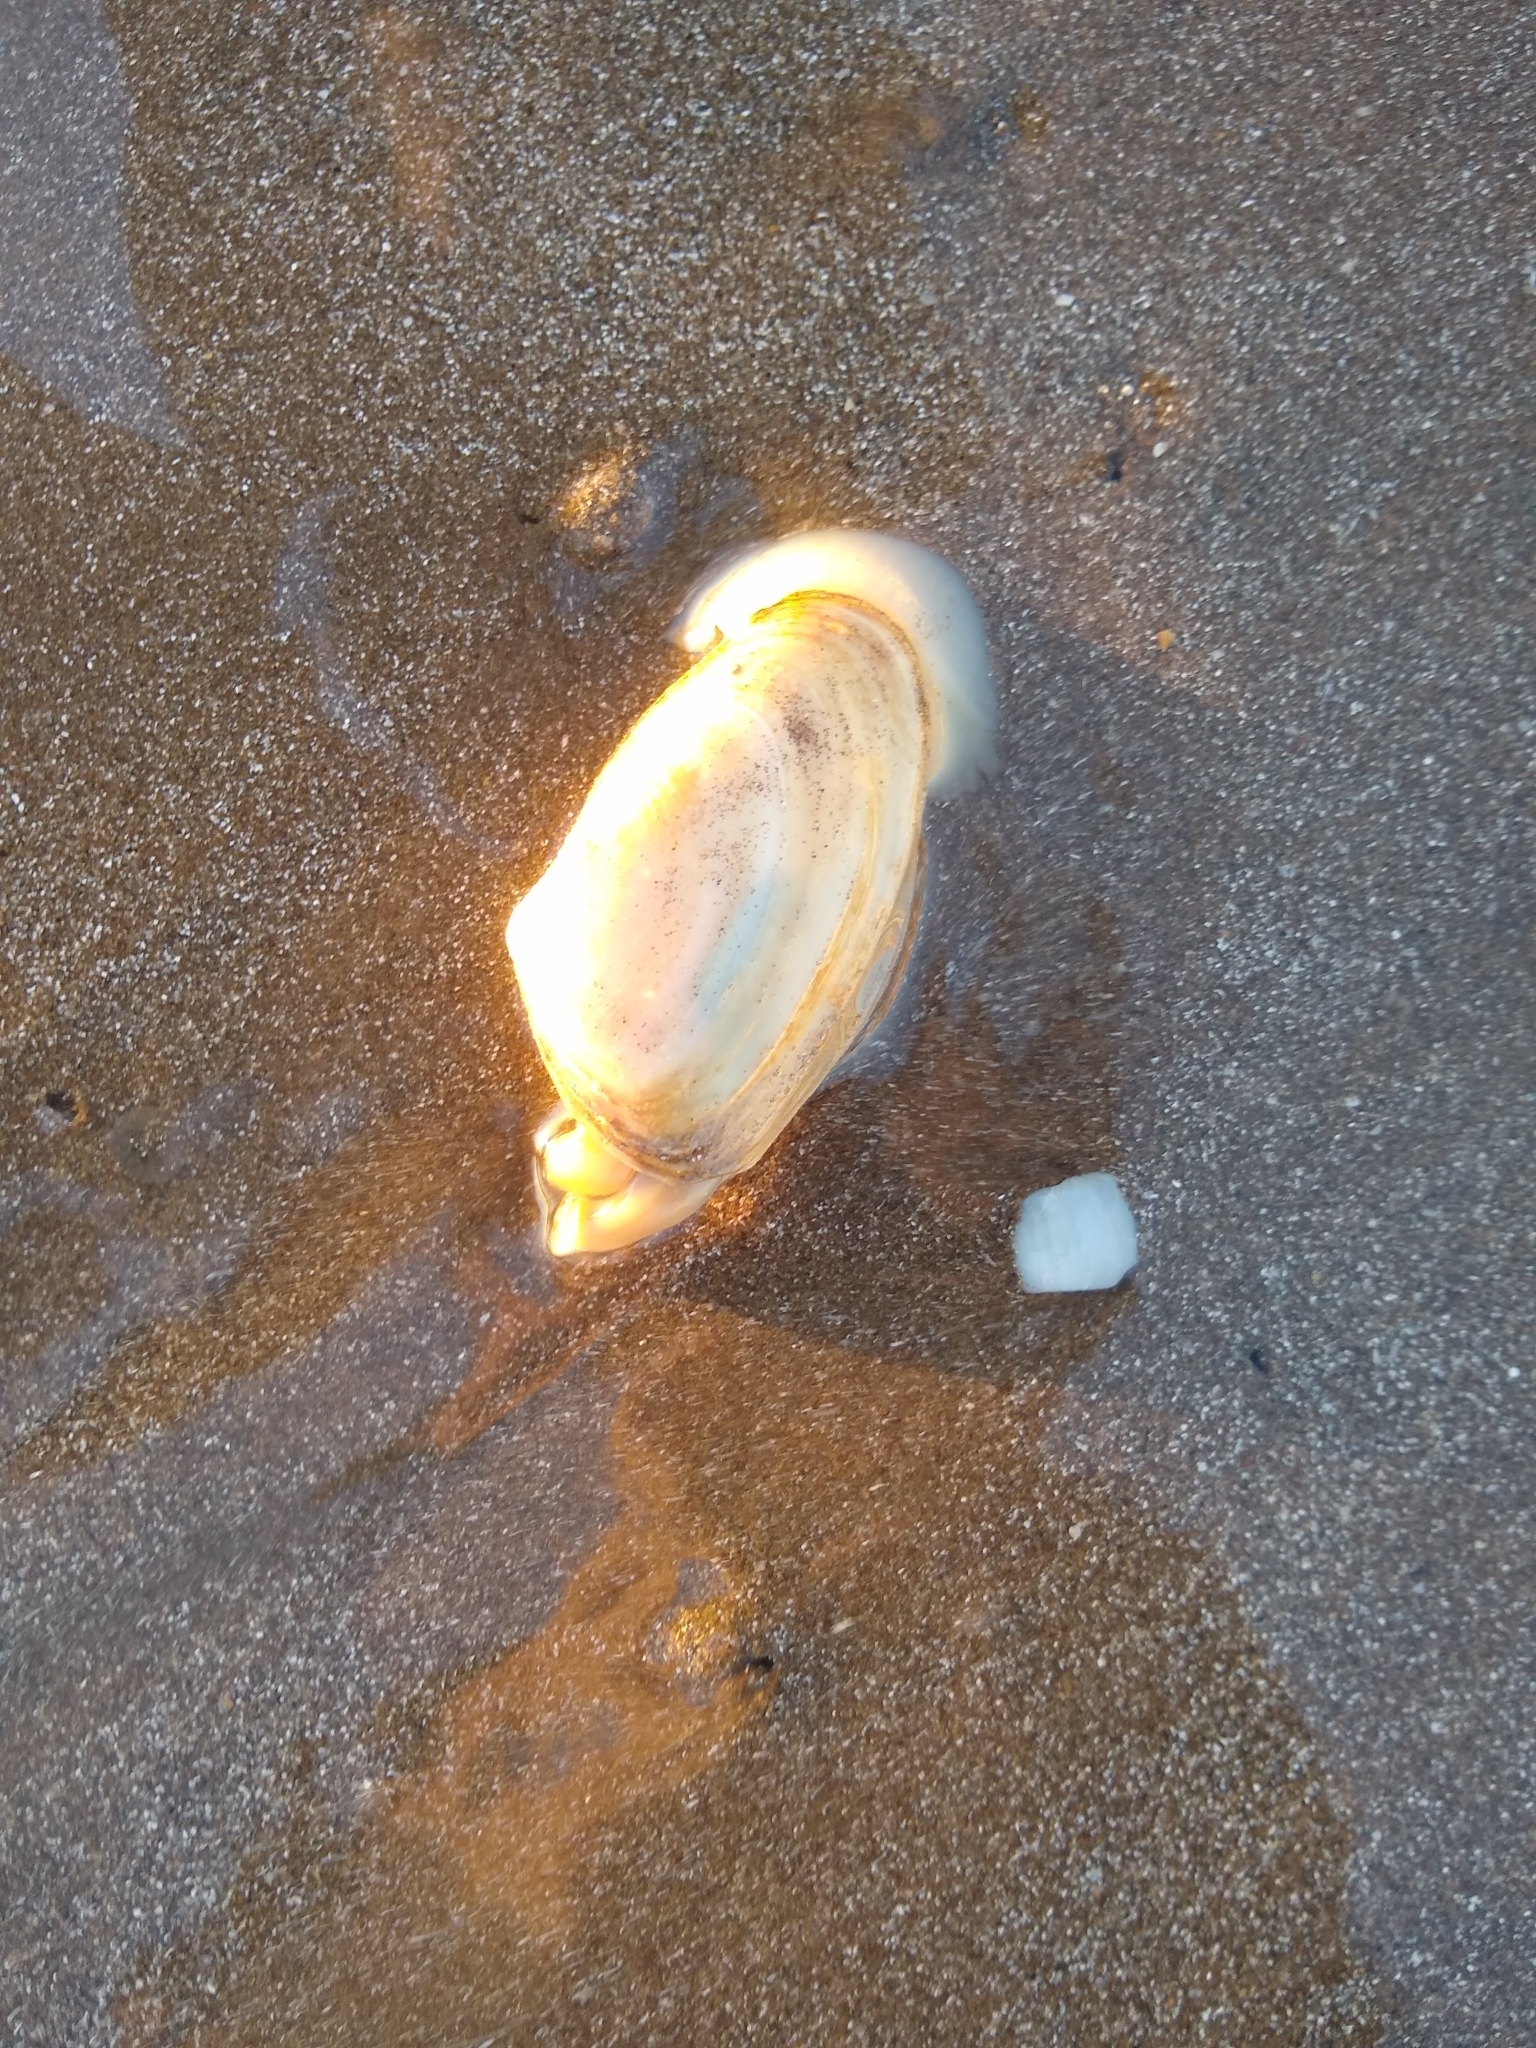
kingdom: Animalia
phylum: Mollusca
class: Bivalvia
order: Venerida
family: Mesodesmatidae
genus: Amarilladesma
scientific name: Amarilladesma mactroides
